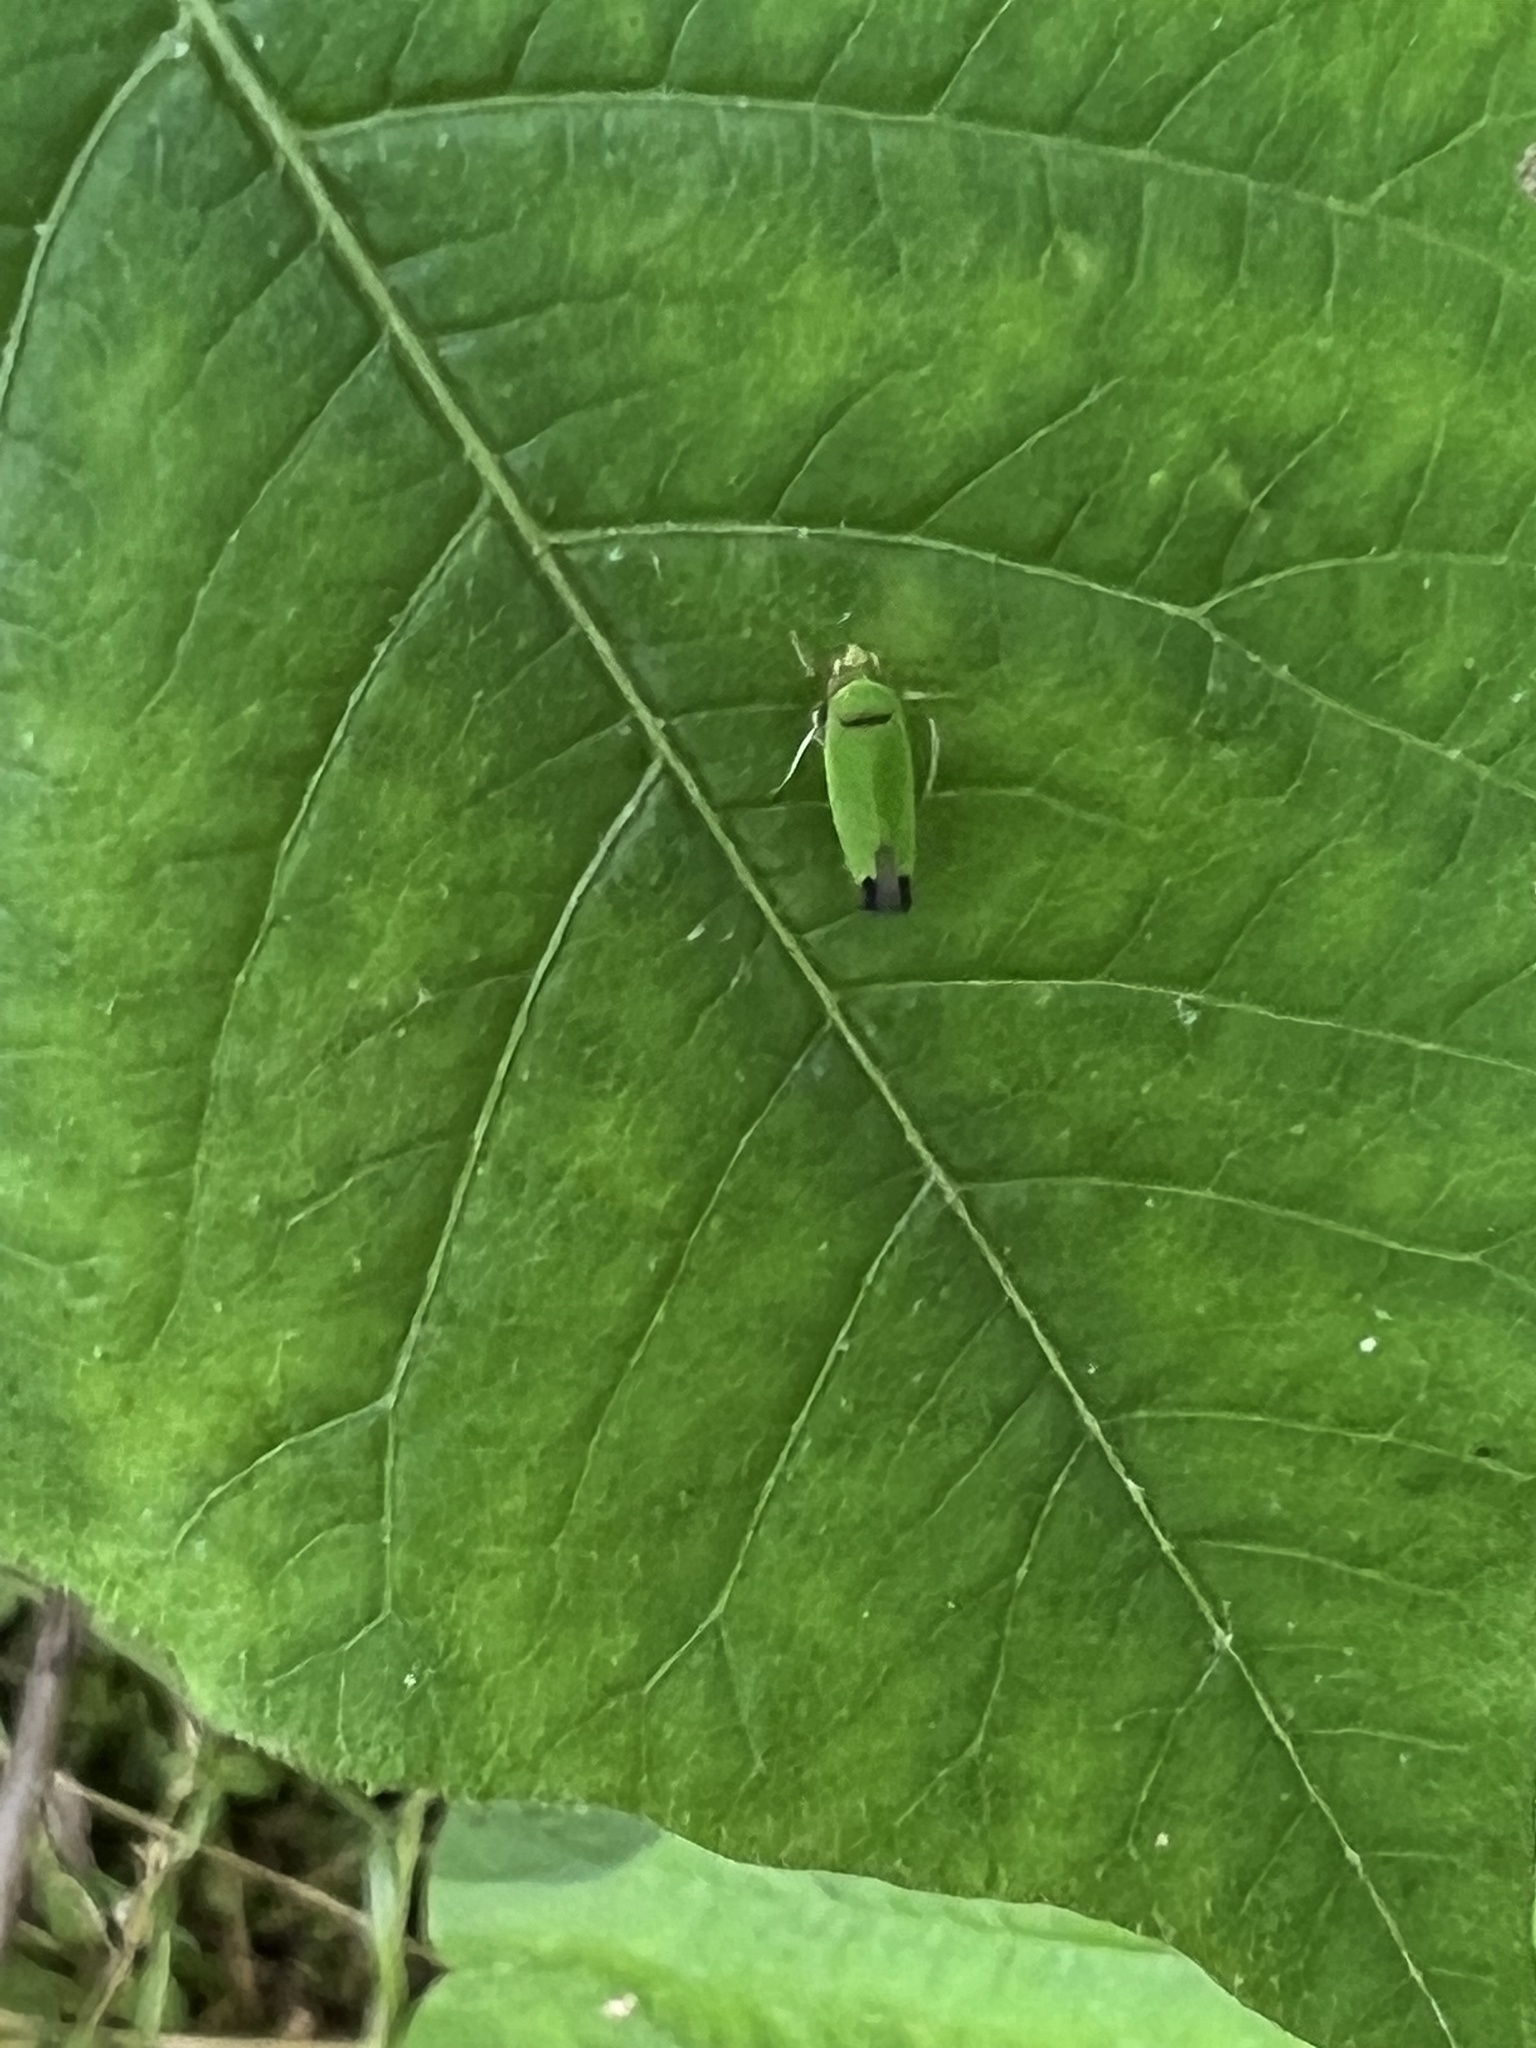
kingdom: Animalia
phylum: Arthropoda
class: Insecta
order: Hemiptera
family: Cicadellidae
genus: Tylozygus
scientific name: Tylozygus geometricus
